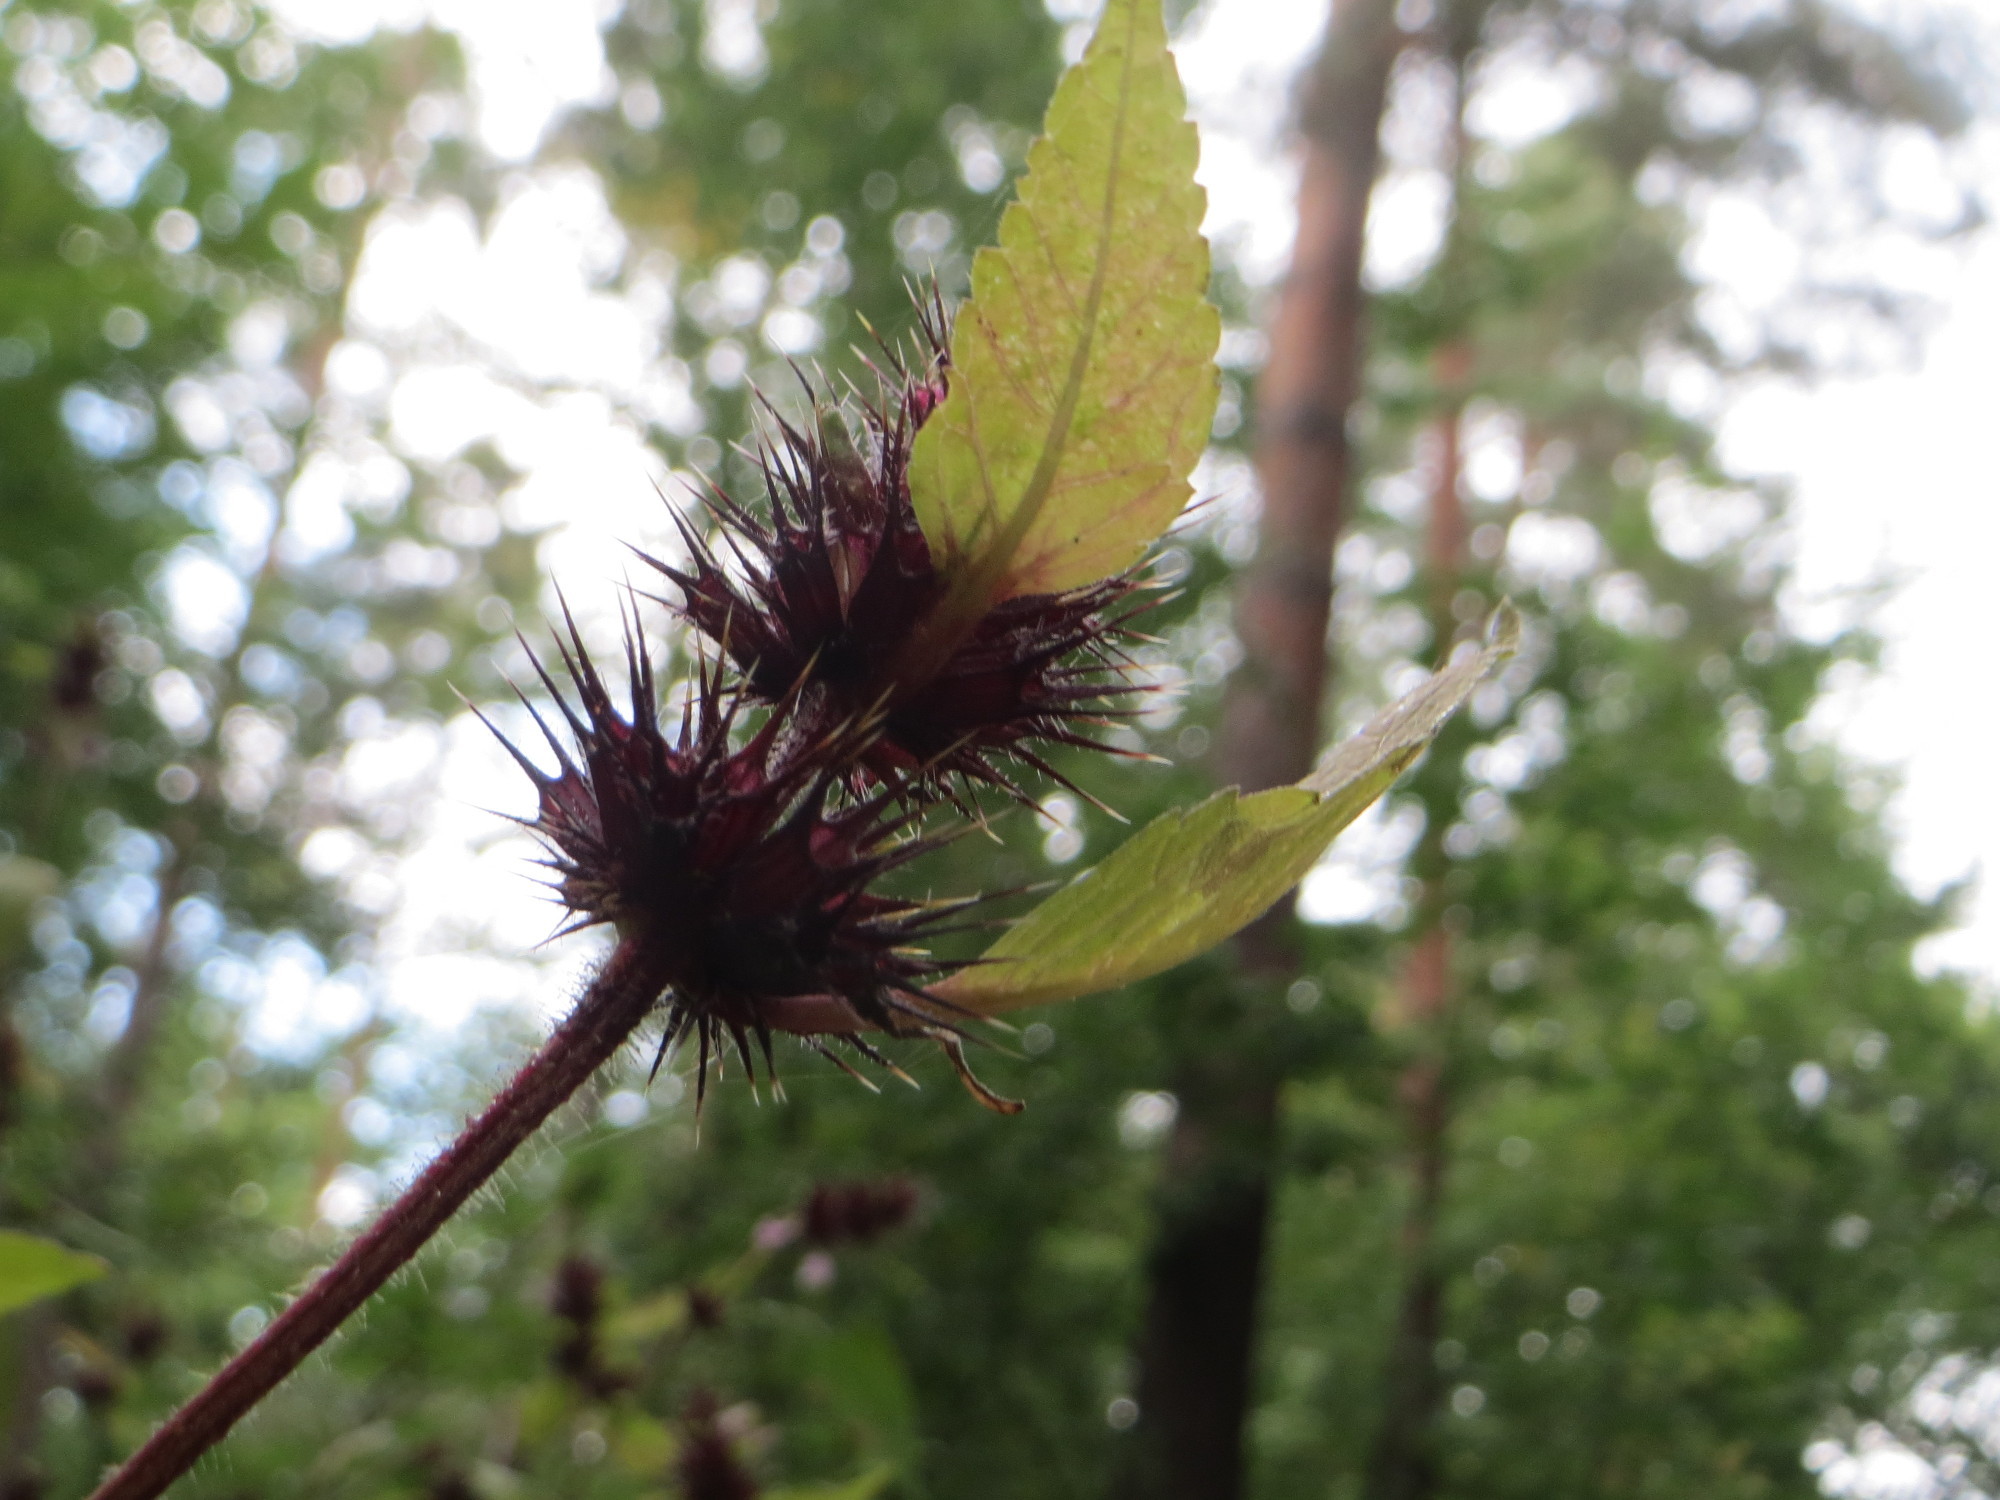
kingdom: Plantae
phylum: Tracheophyta
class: Magnoliopsida
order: Lamiales
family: Lamiaceae
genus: Galeopsis
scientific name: Galeopsis tetrahit
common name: Common hemp-nettle
